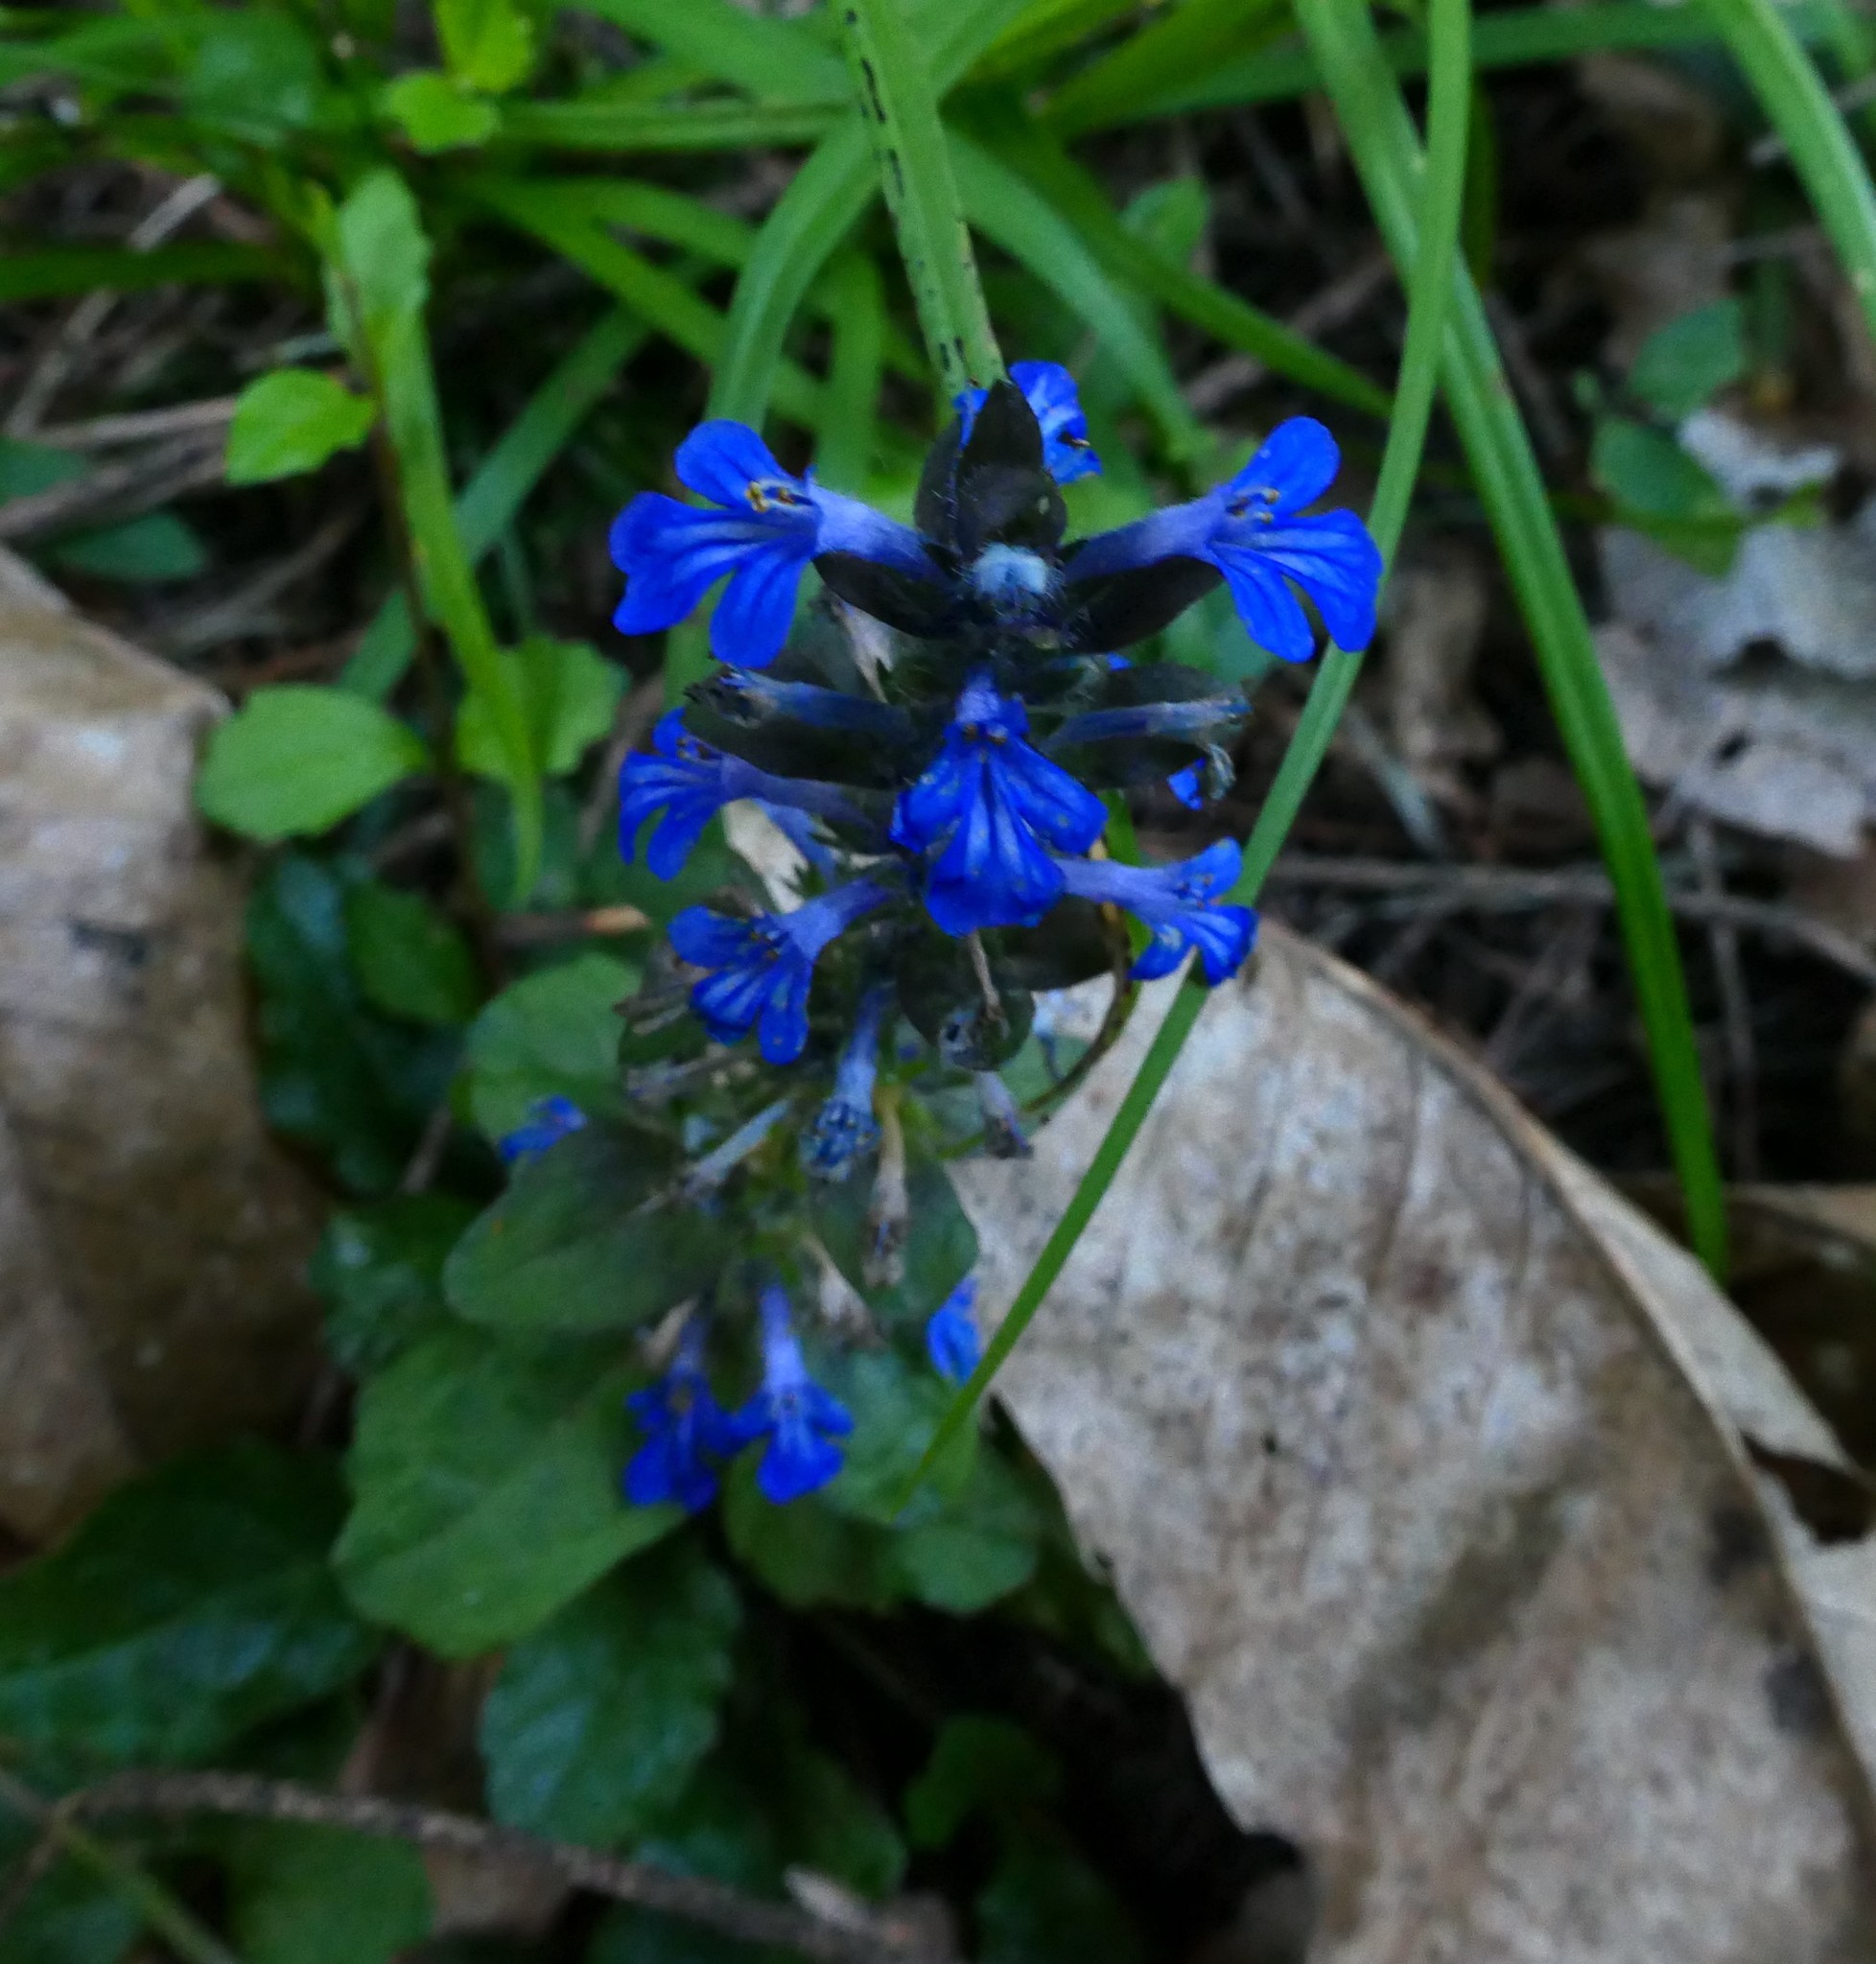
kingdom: Plantae
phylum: Tracheophyta
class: Magnoliopsida
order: Lamiales
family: Lamiaceae
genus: Ajuga
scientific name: Ajuga reptans
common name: Bugle
